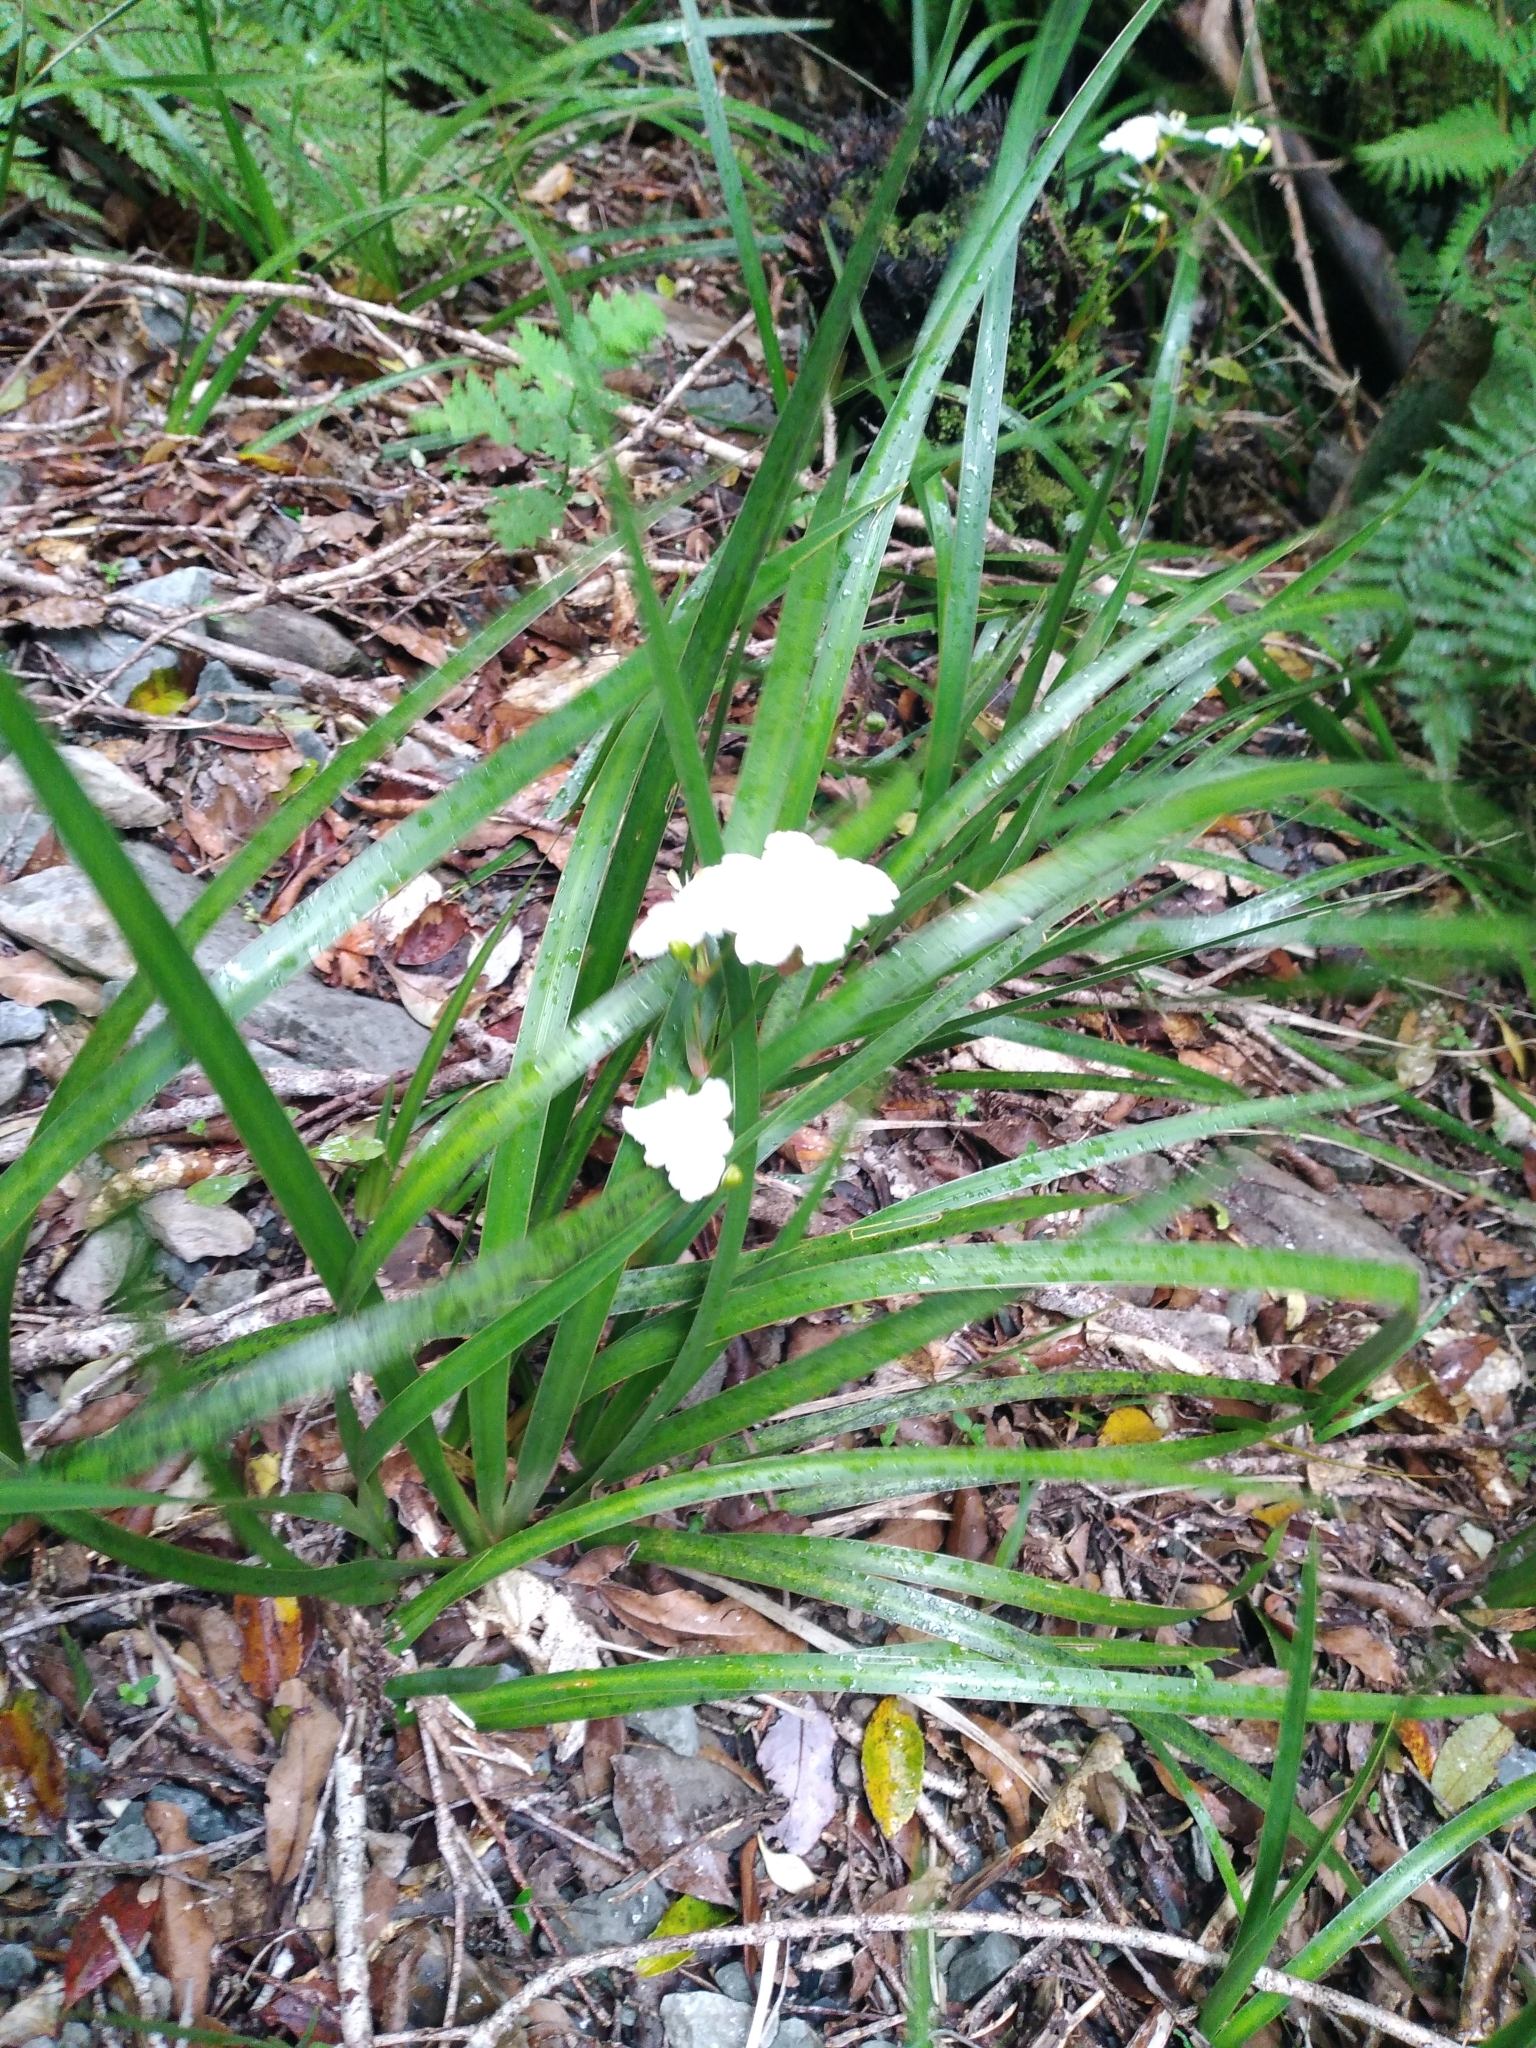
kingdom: Plantae
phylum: Tracheophyta
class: Liliopsida
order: Asparagales
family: Iridaceae
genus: Libertia
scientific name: Libertia ixioides
